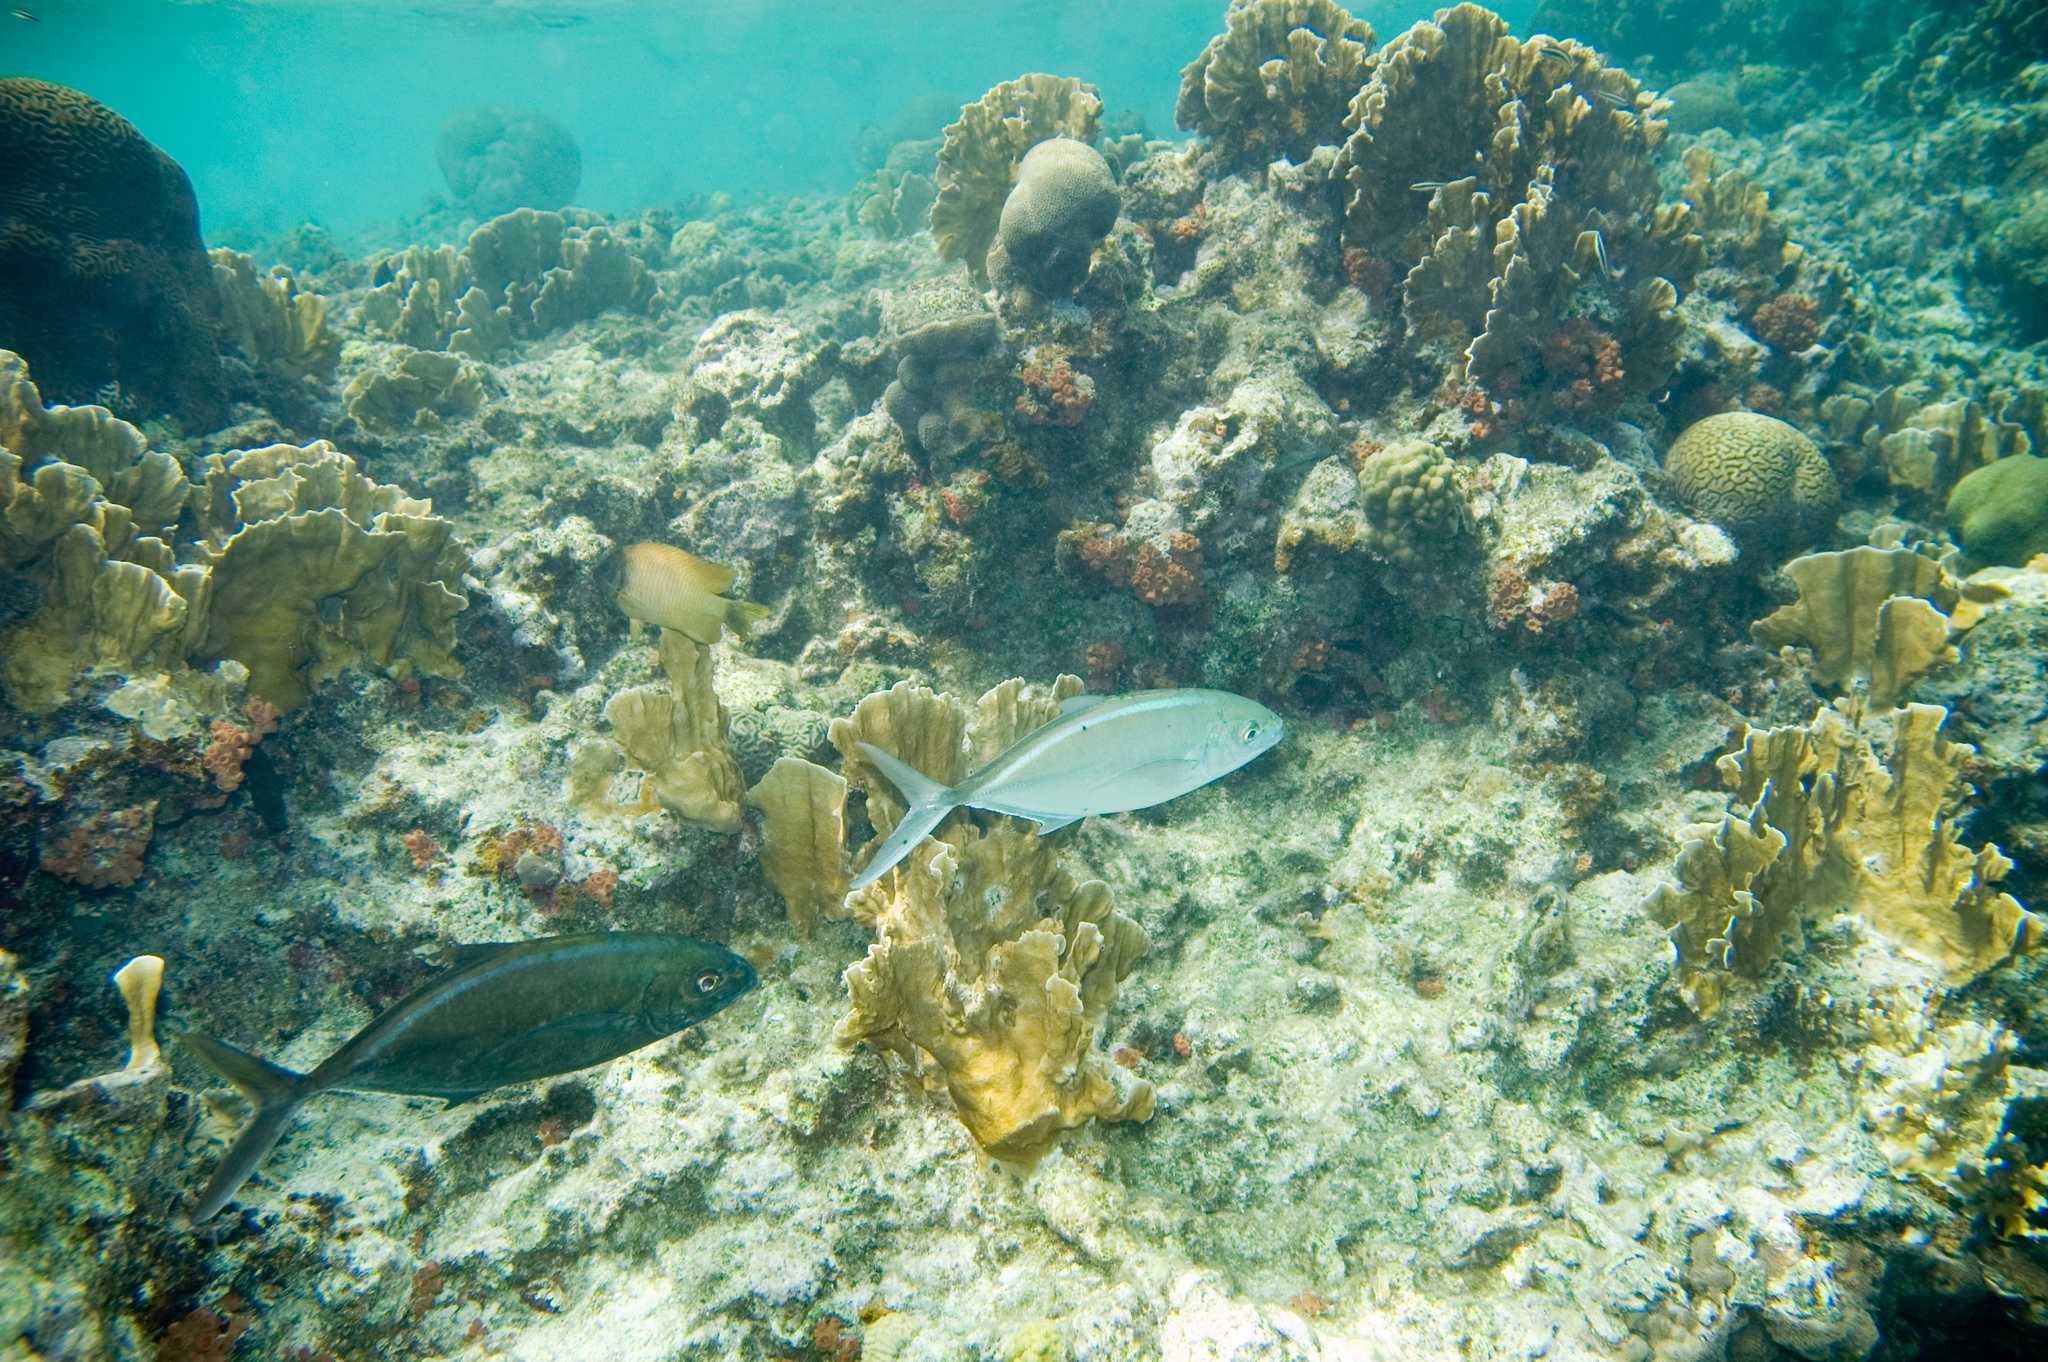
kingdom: Animalia
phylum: Chordata
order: Perciformes
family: Carangidae
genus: Caranx
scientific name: Caranx ruber
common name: Bar jack
